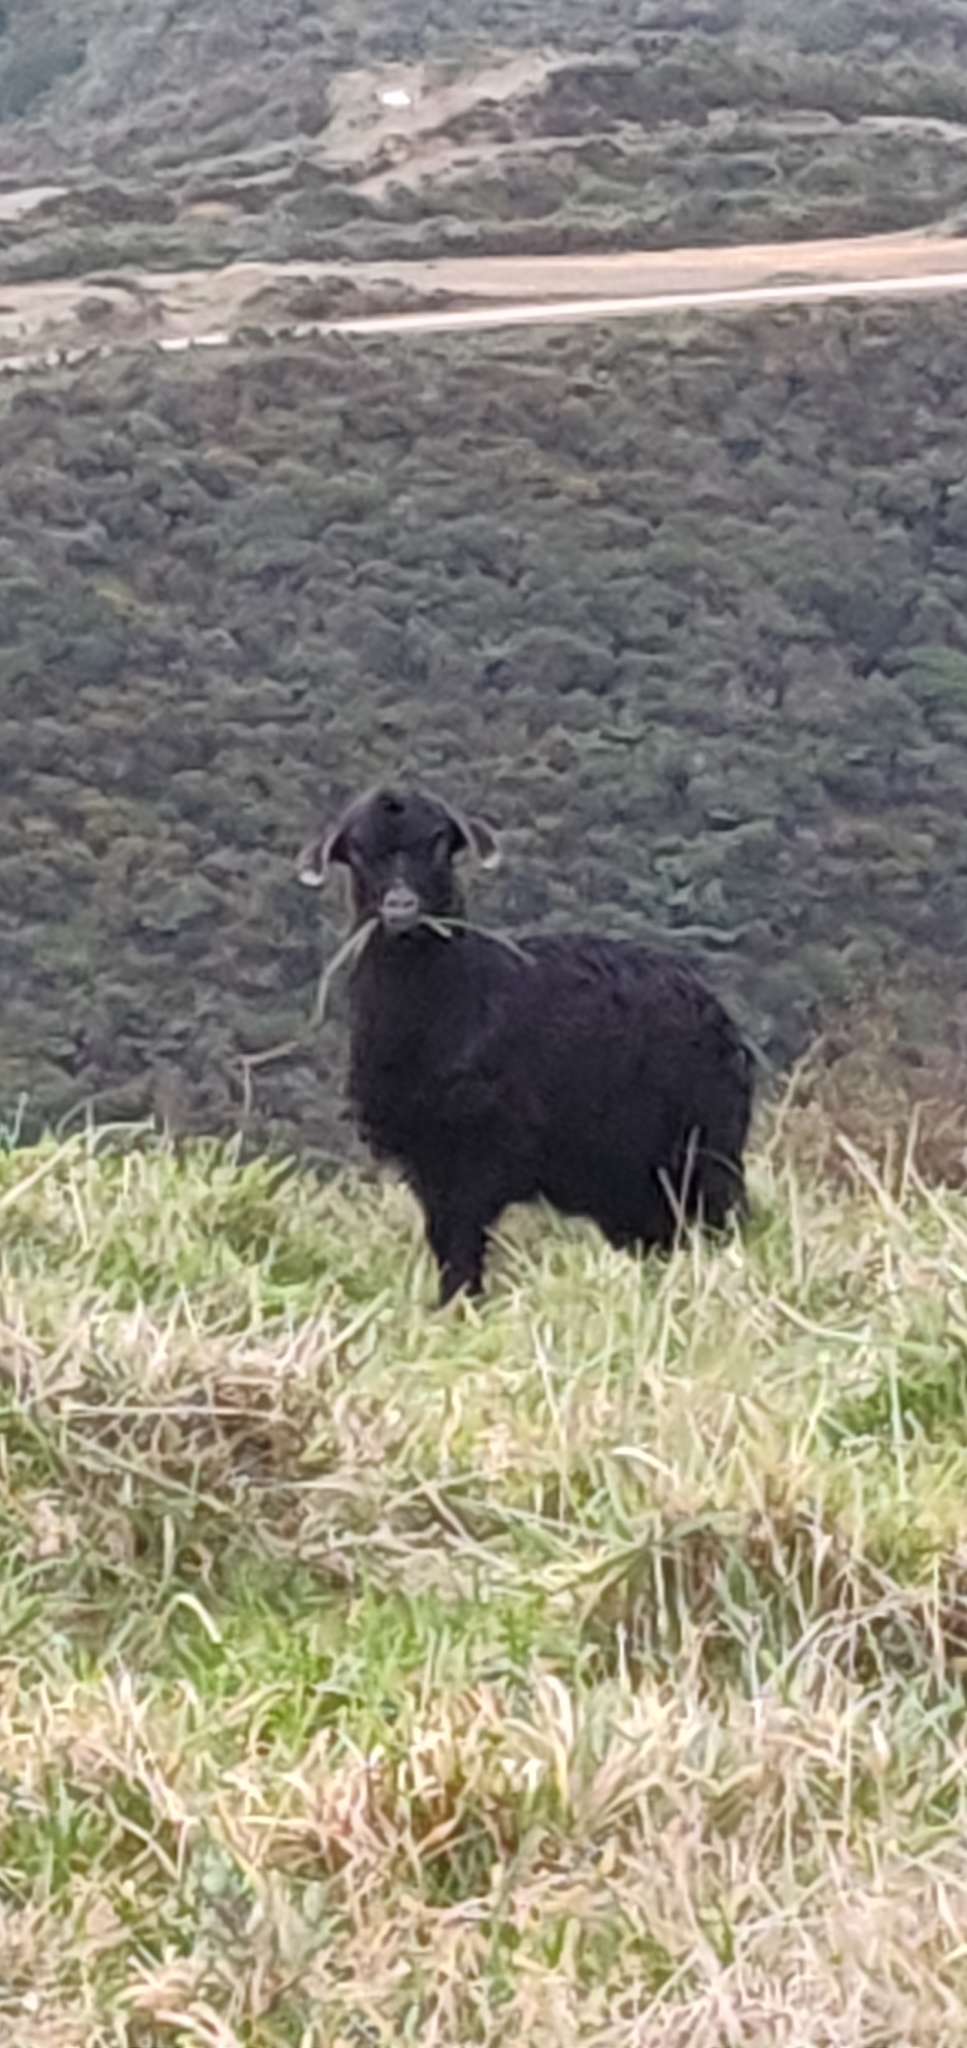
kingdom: Animalia
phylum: Chordata
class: Mammalia
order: Artiodactyla
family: Bovidae
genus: Capra
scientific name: Capra hircus
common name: Domestic goat
